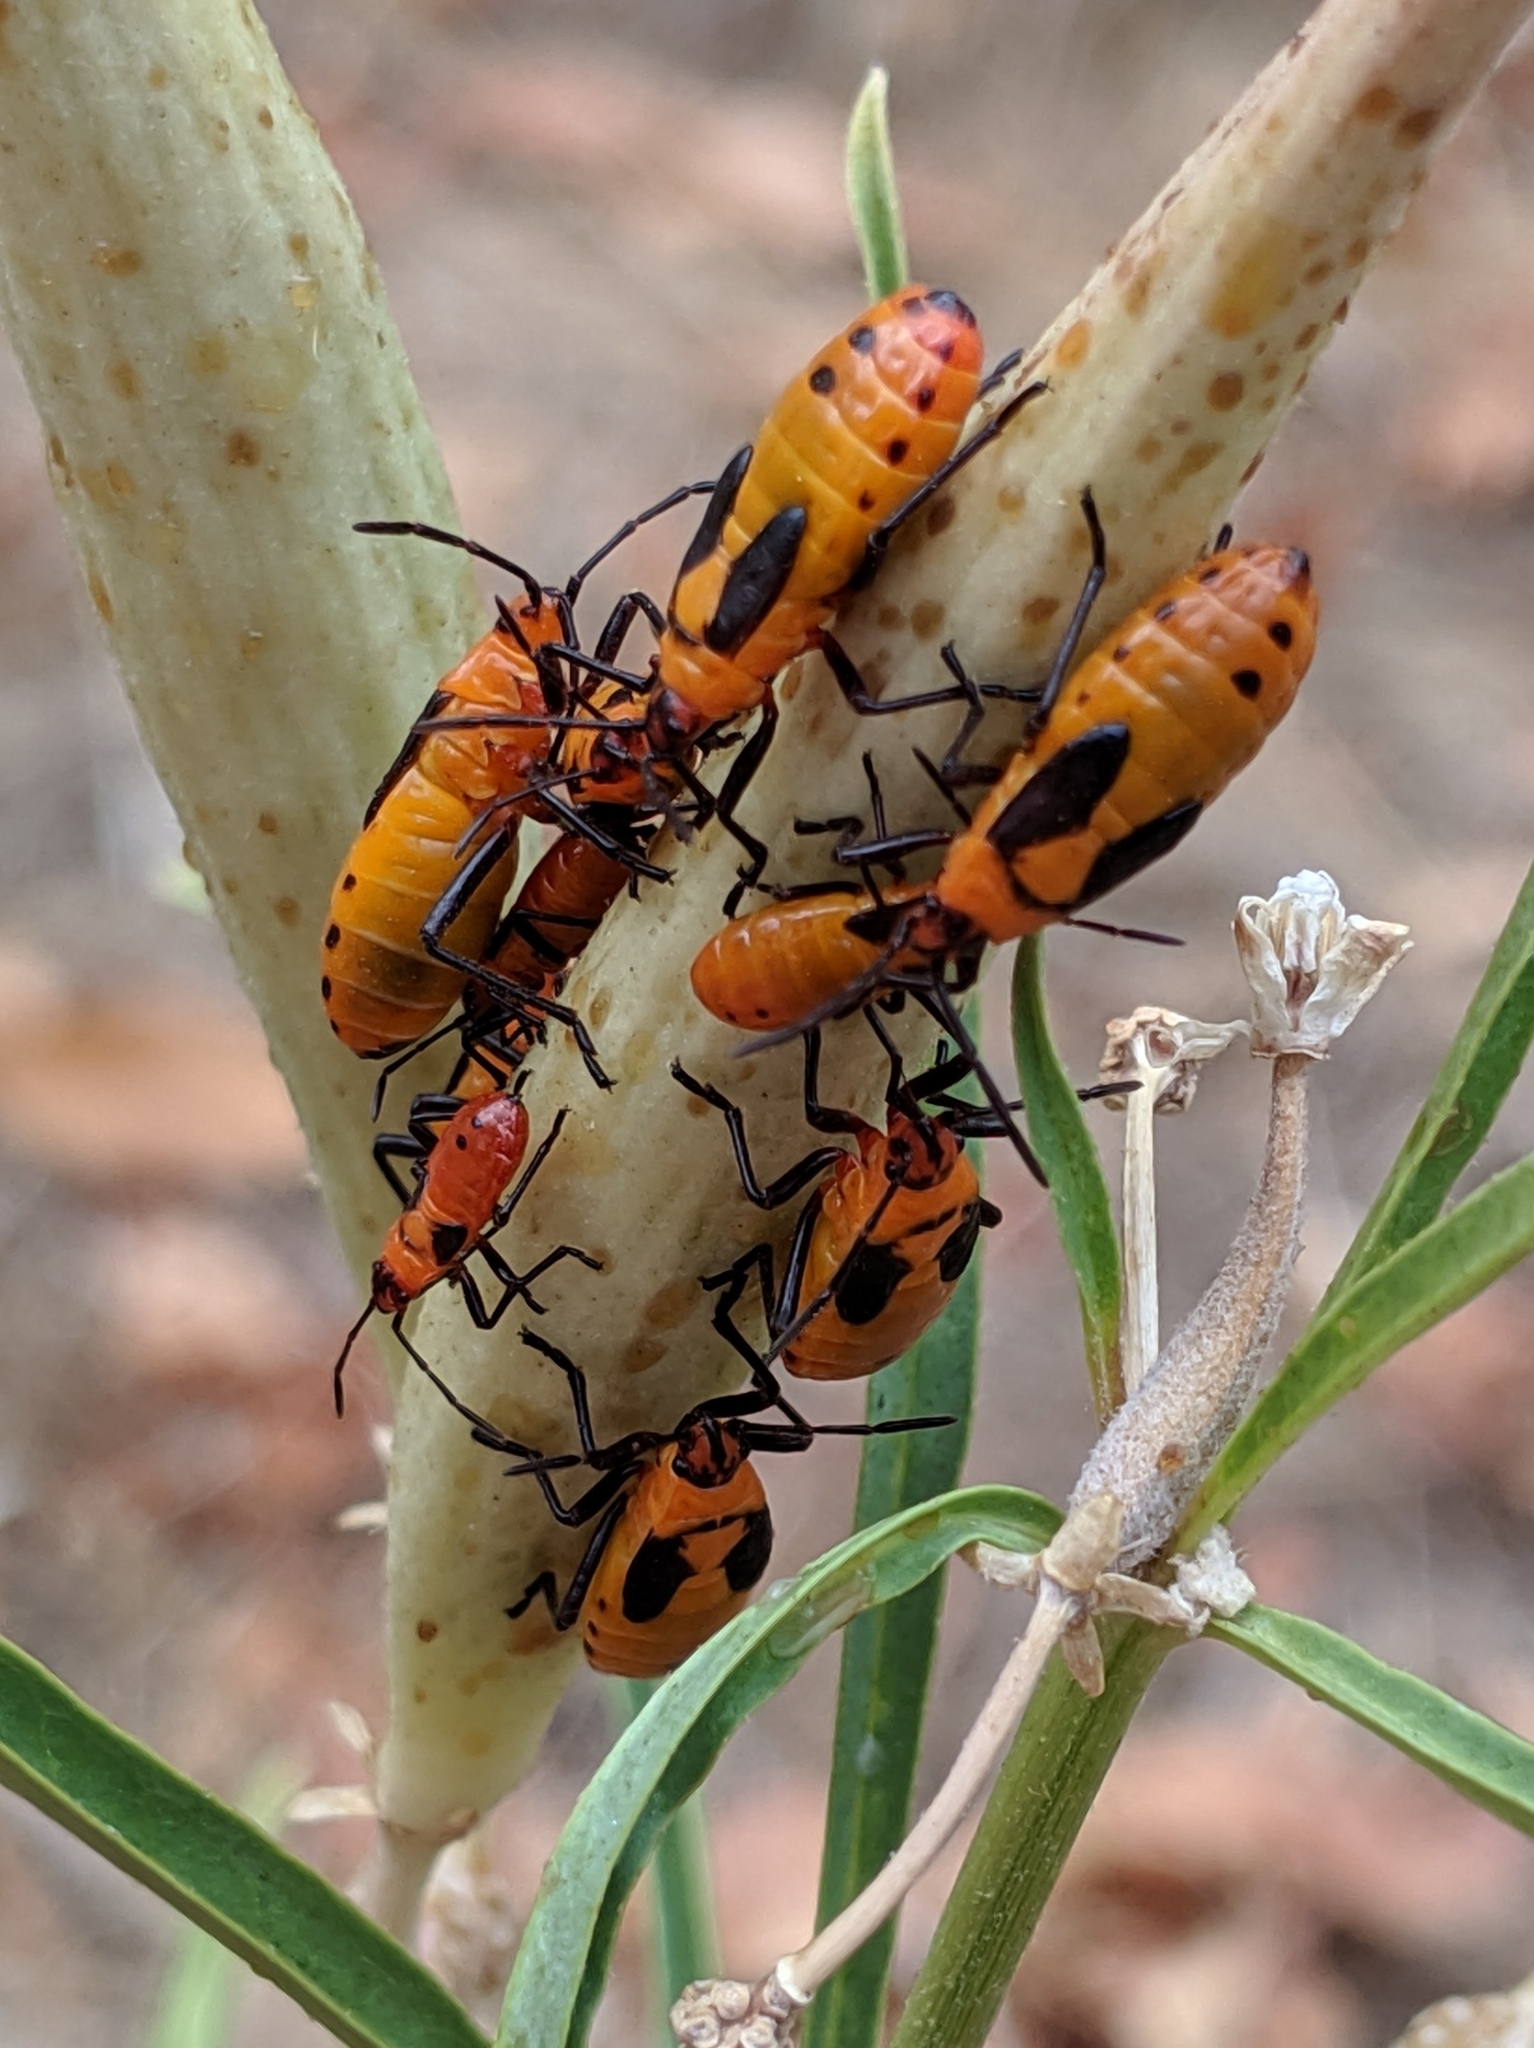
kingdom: Animalia
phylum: Arthropoda
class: Insecta
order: Hemiptera
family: Lygaeidae
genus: Oncopeltus
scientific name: Oncopeltus fasciatus
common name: Large milkweed bug
